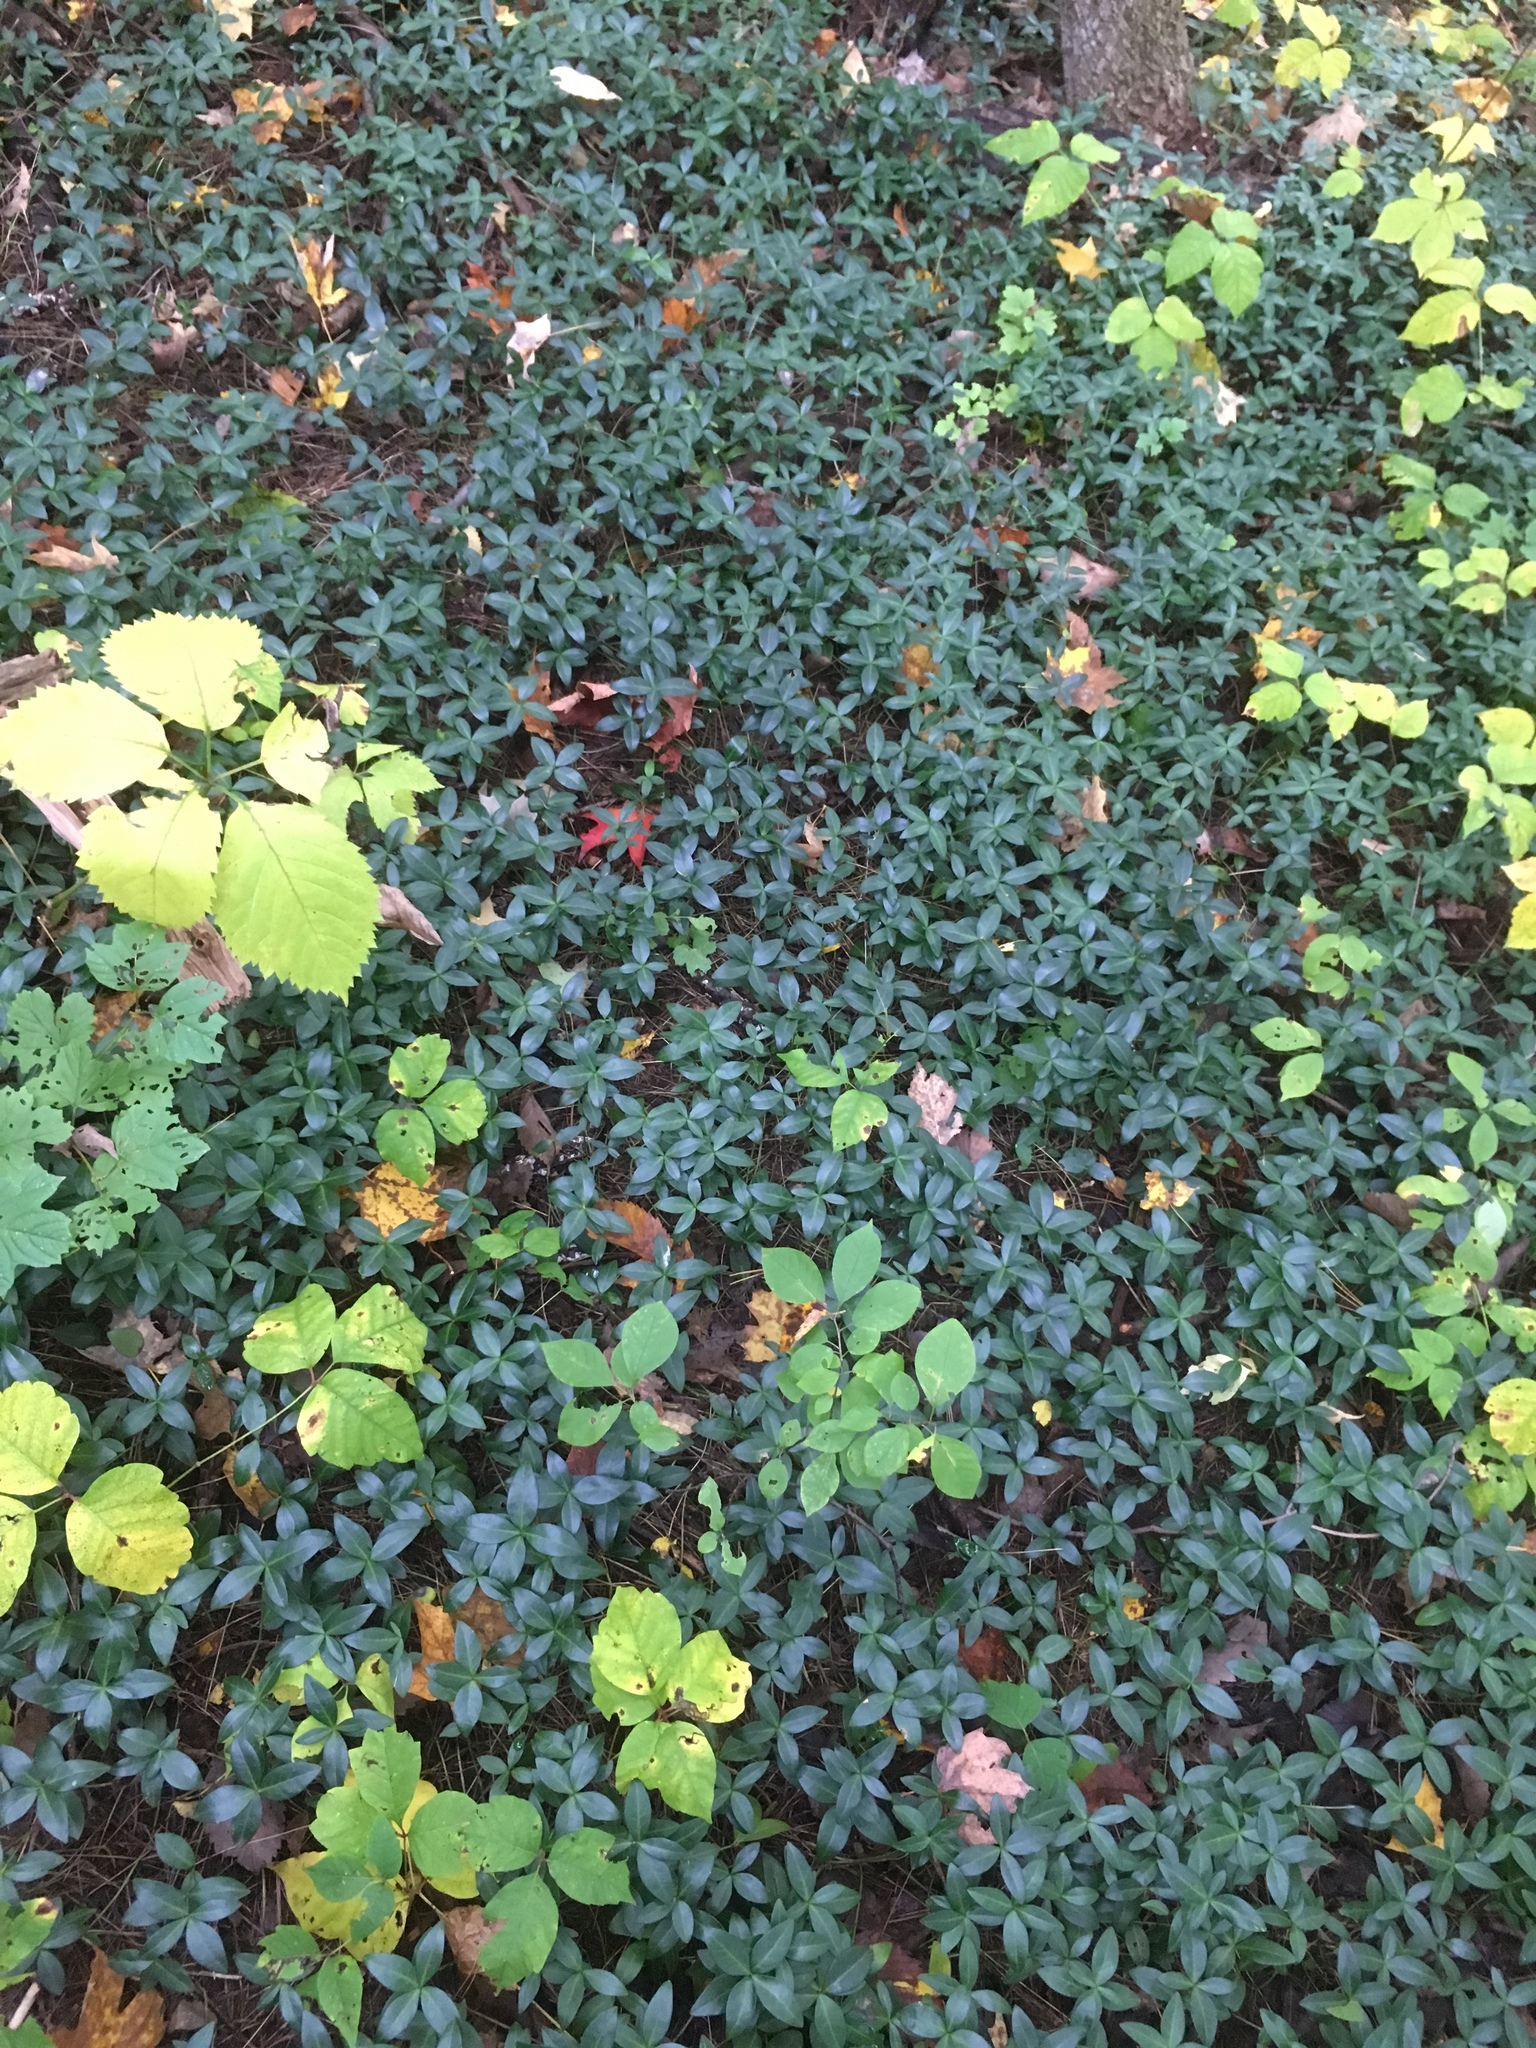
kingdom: Plantae
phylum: Tracheophyta
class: Magnoliopsida
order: Gentianales
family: Apocynaceae
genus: Vinca
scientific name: Vinca minor
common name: Lesser periwinkle
